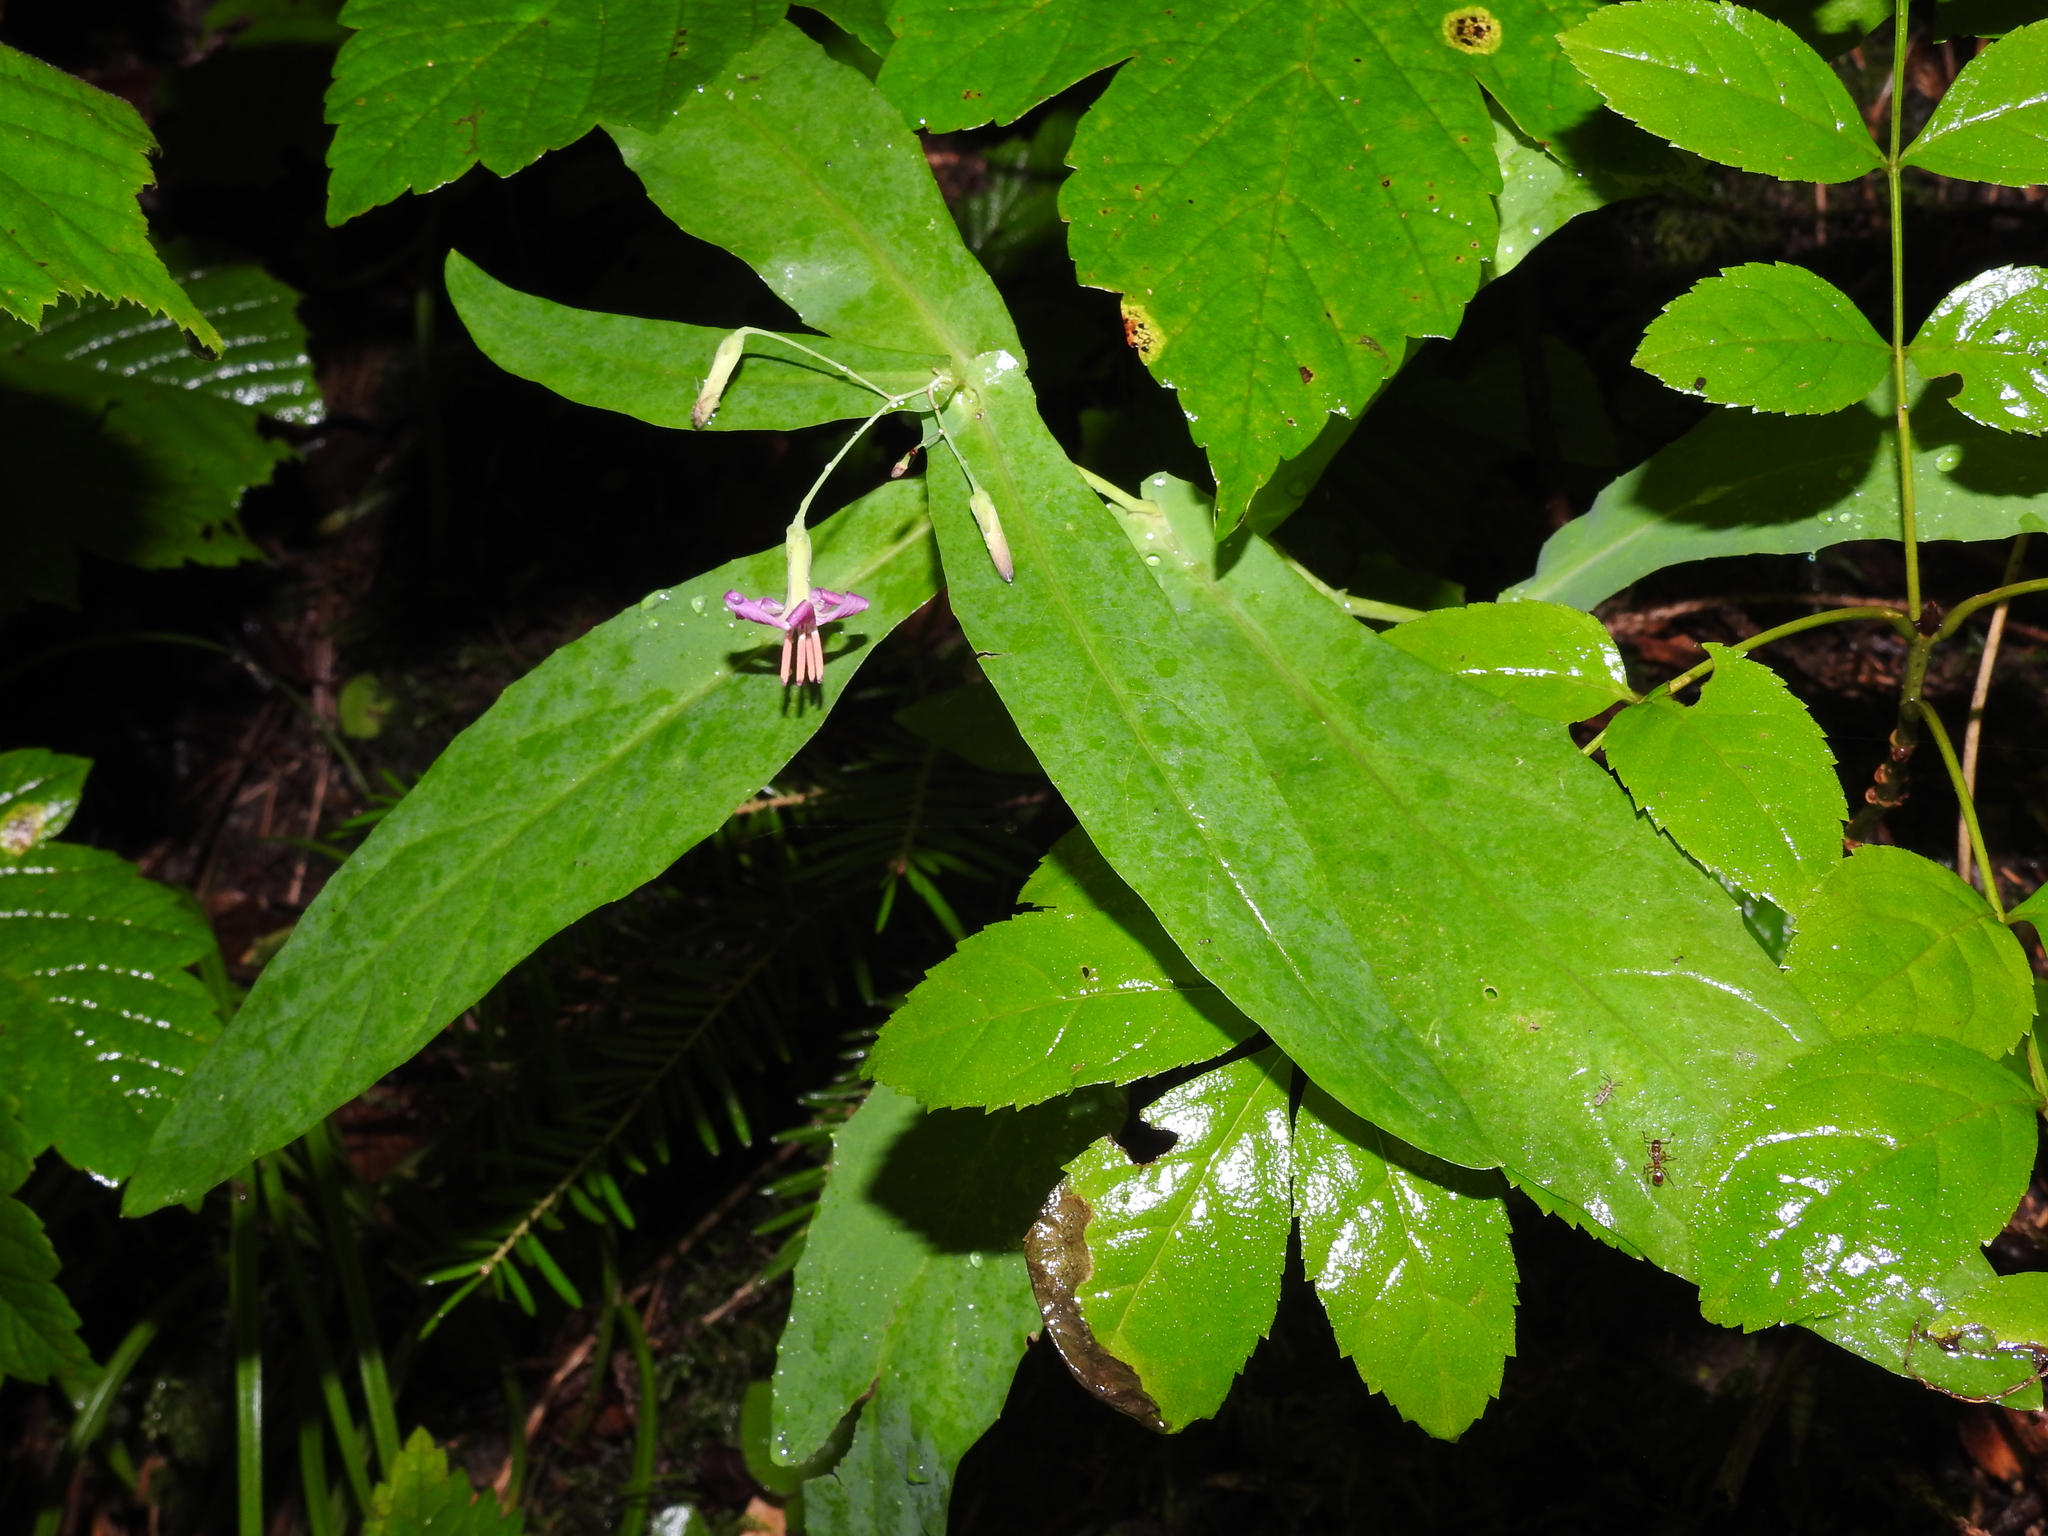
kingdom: Plantae
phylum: Tracheophyta
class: Magnoliopsida
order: Asterales
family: Asteraceae
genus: Prenanthes
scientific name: Prenanthes purpurea
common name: Purple lettuce
